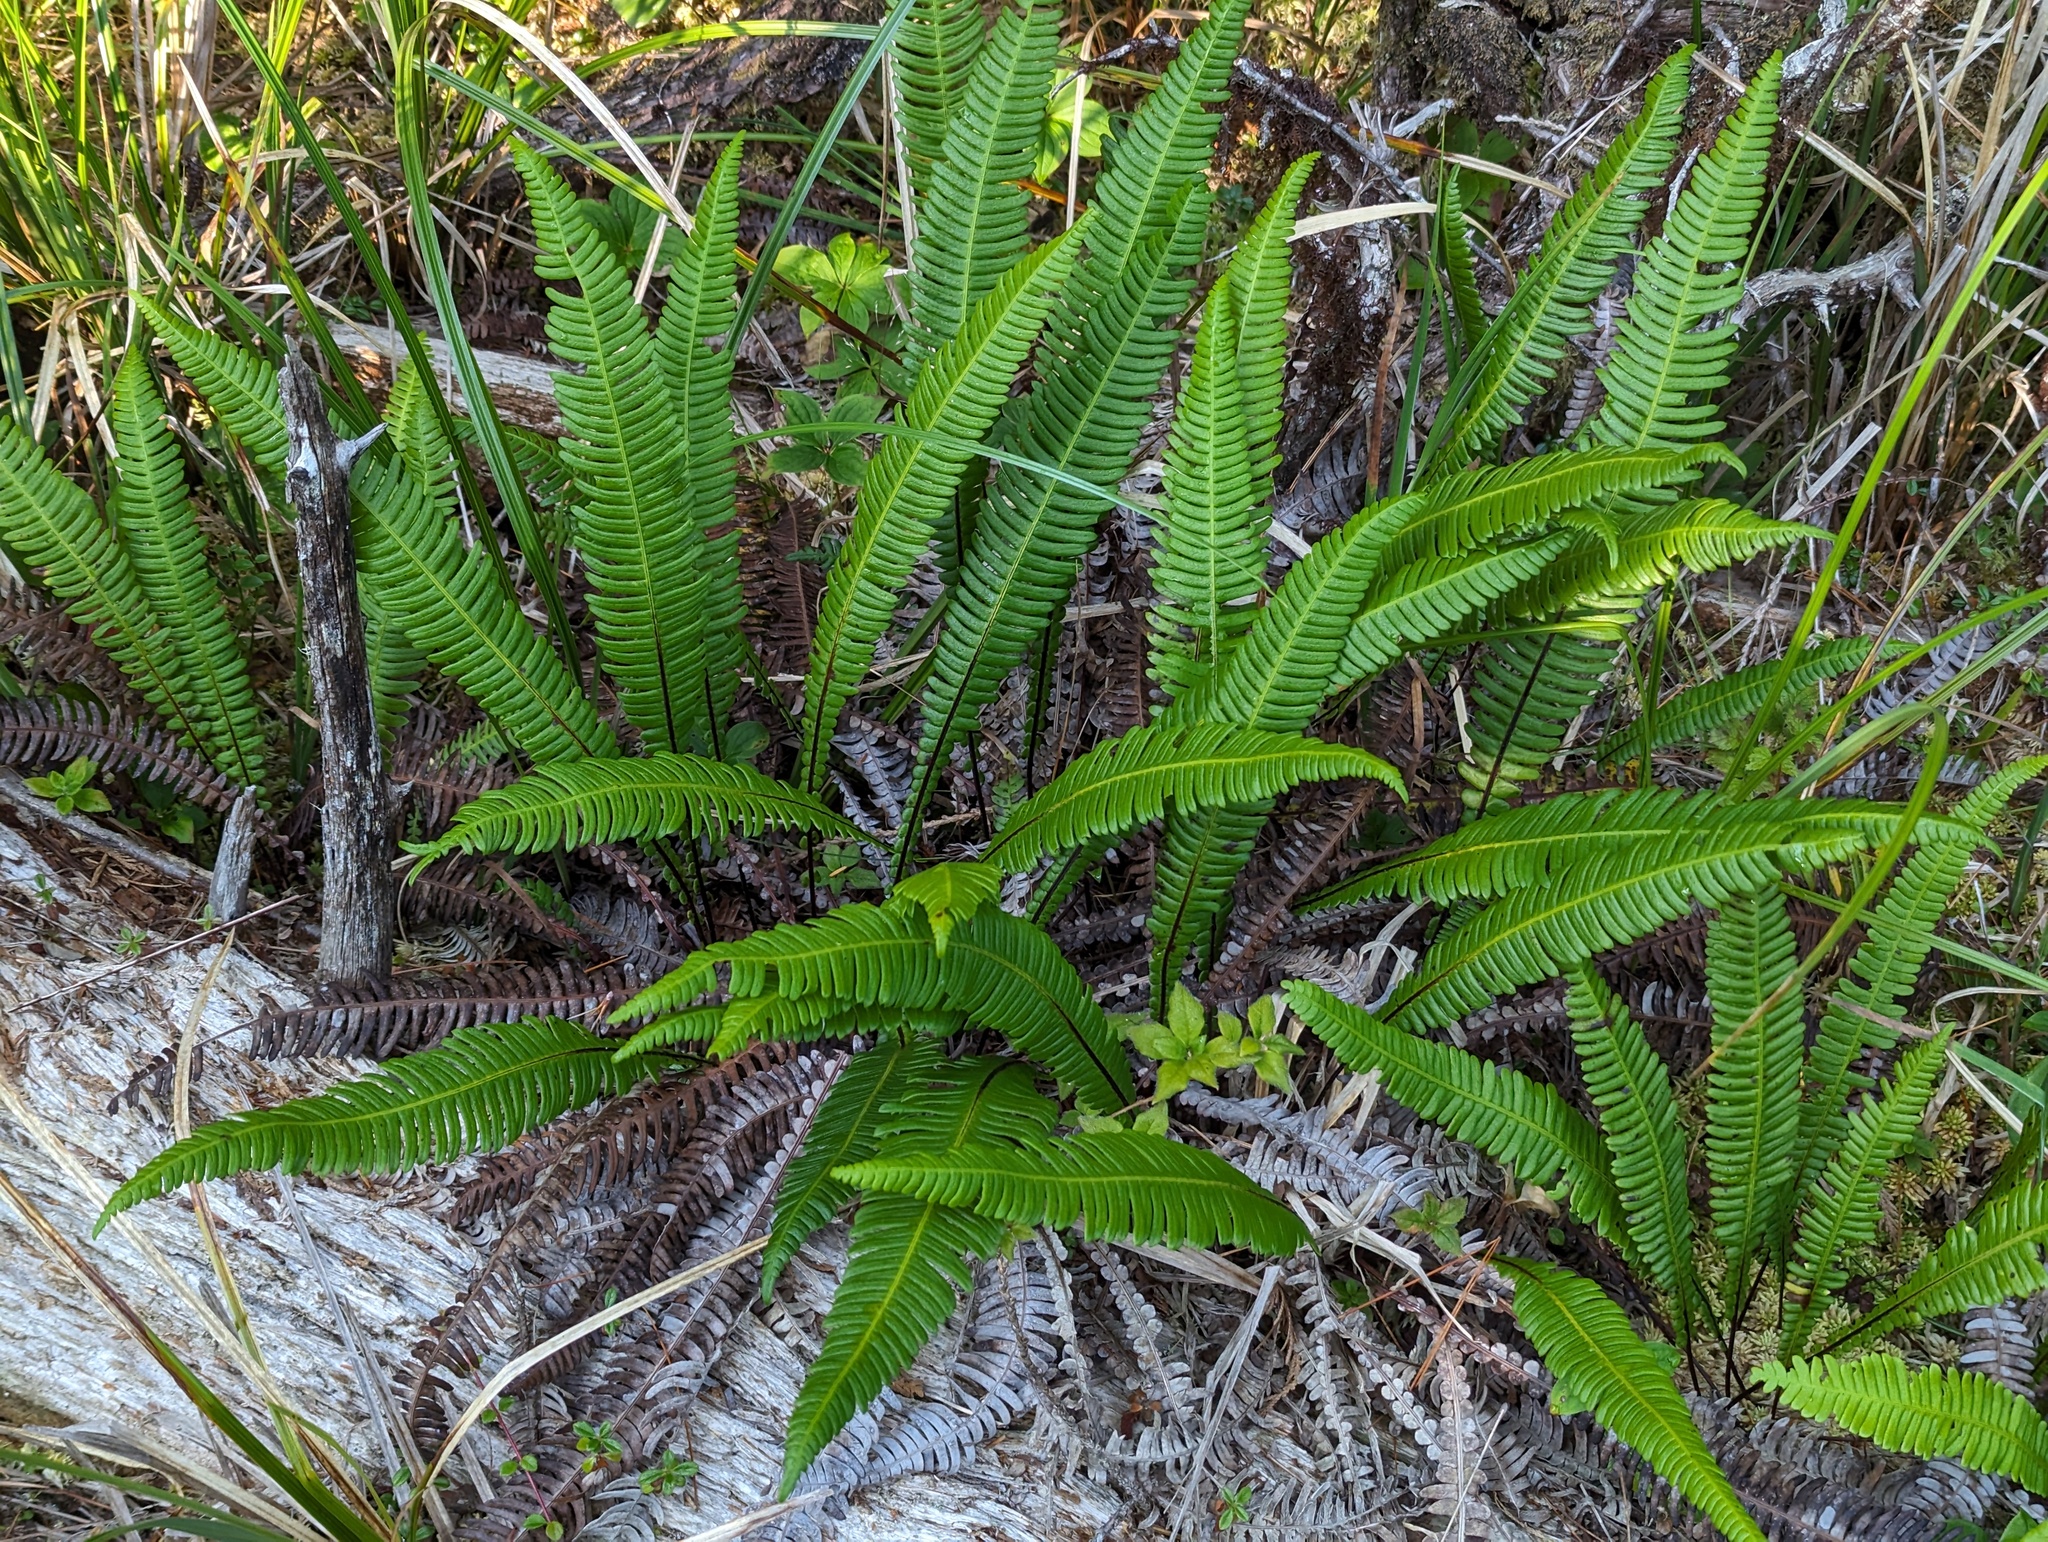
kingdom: Plantae
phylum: Tracheophyta
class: Polypodiopsida
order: Polypodiales
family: Blechnaceae
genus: Struthiopteris
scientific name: Struthiopteris spicant
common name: Deer fern
